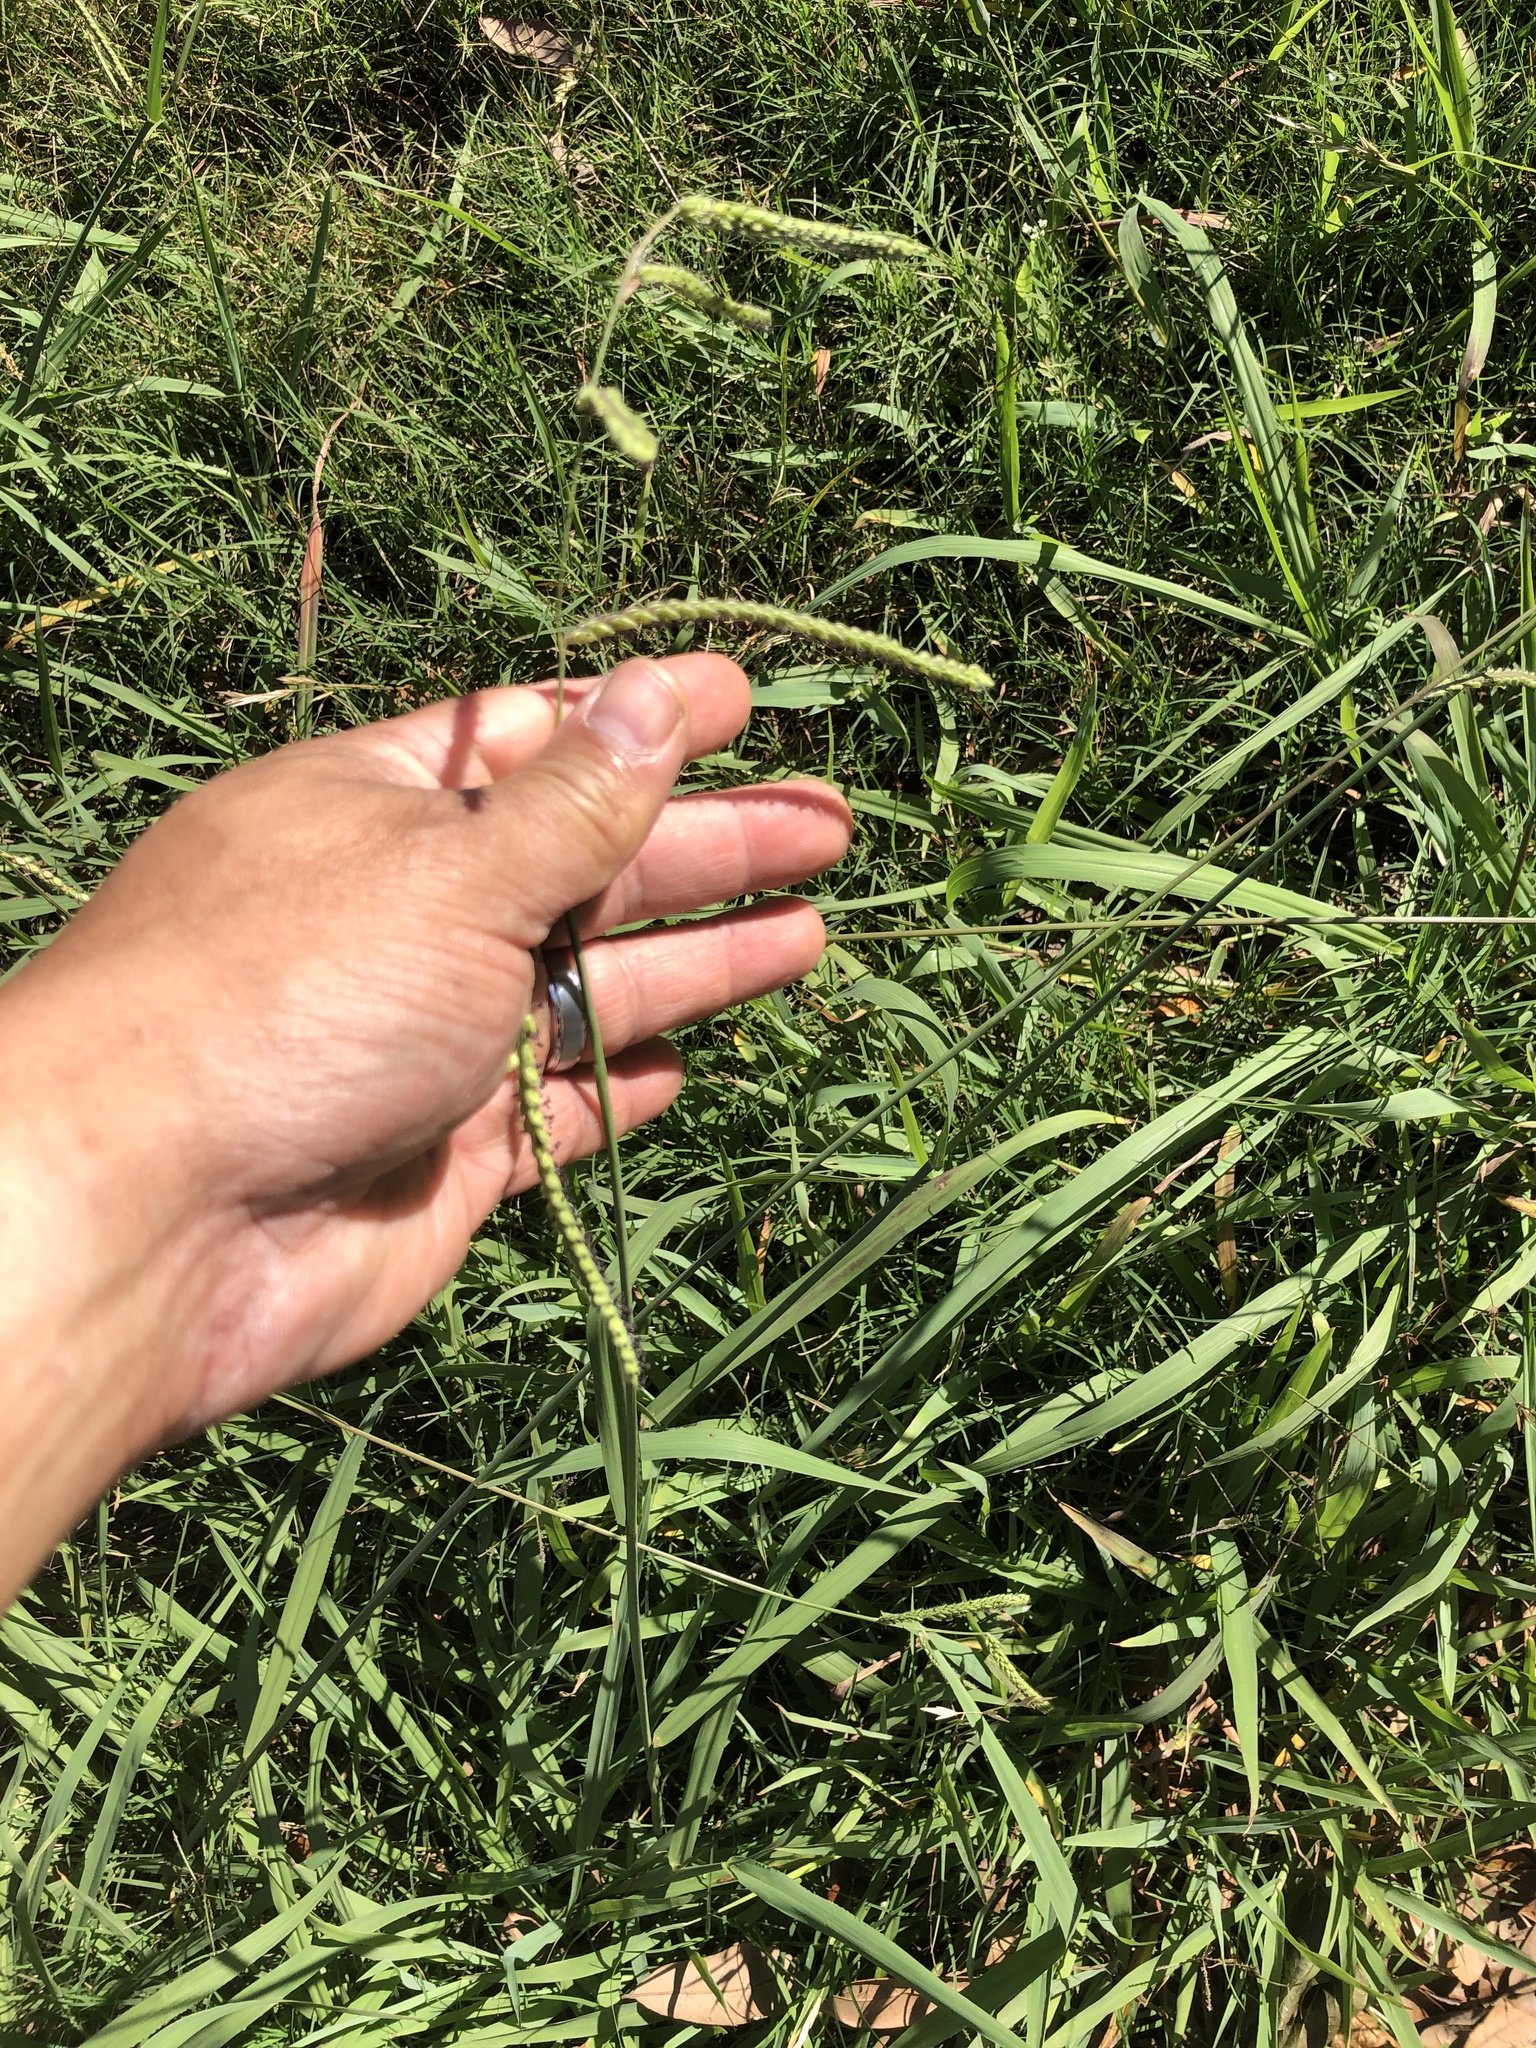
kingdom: Plantae
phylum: Tracheophyta
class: Liliopsida
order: Poales
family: Poaceae
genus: Paspalum
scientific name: Paspalum dilatatum
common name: Dallisgrass
